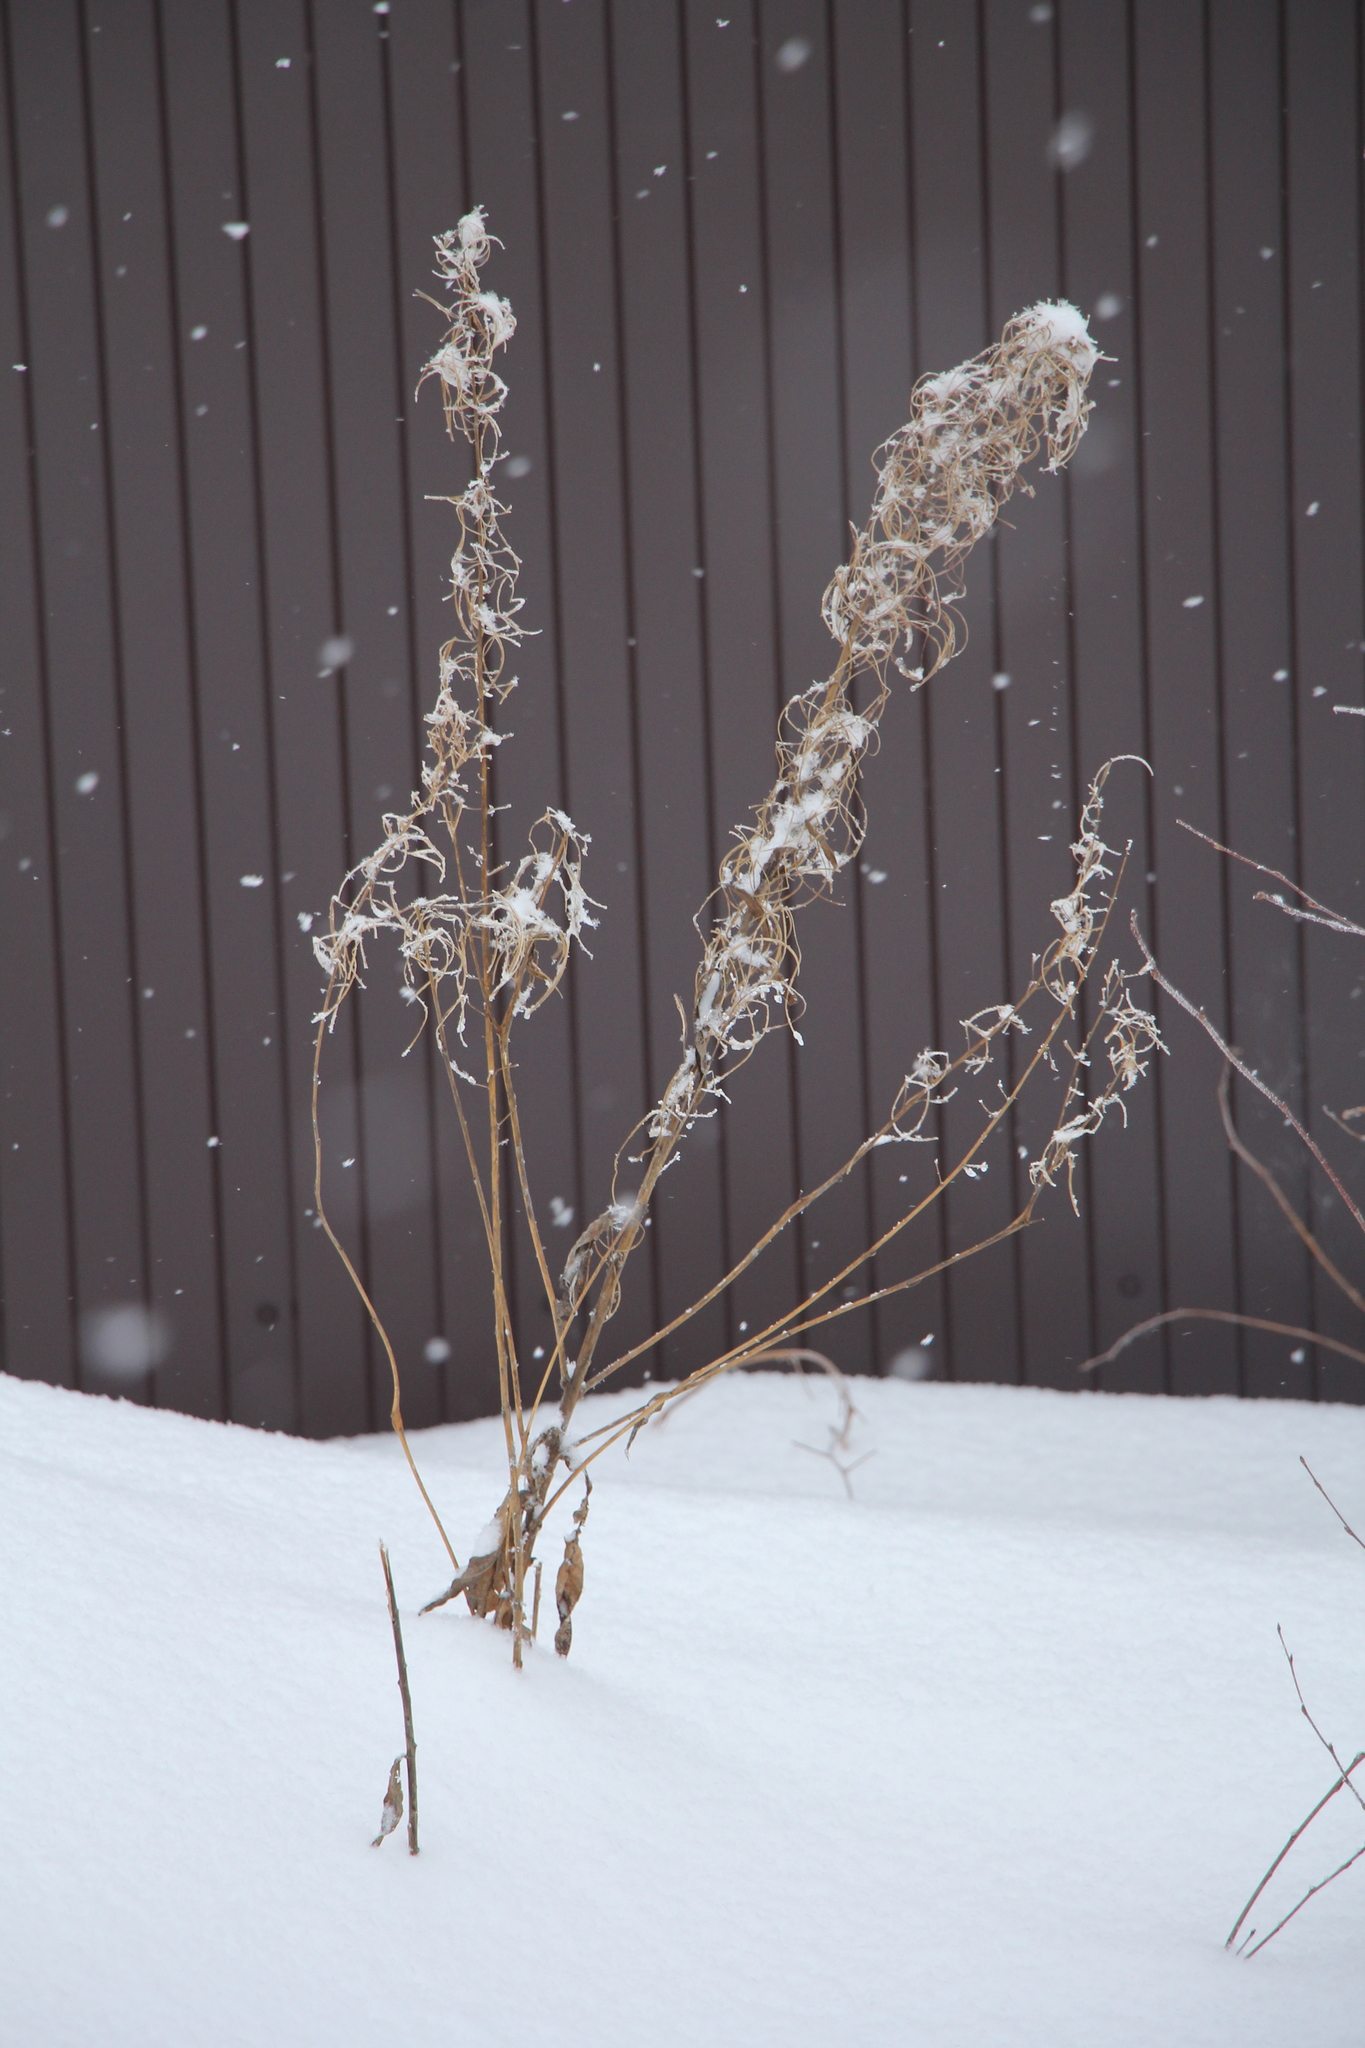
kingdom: Plantae
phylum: Tracheophyta
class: Magnoliopsida
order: Myrtales
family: Onagraceae
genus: Chamaenerion
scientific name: Chamaenerion angustifolium
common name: Fireweed
